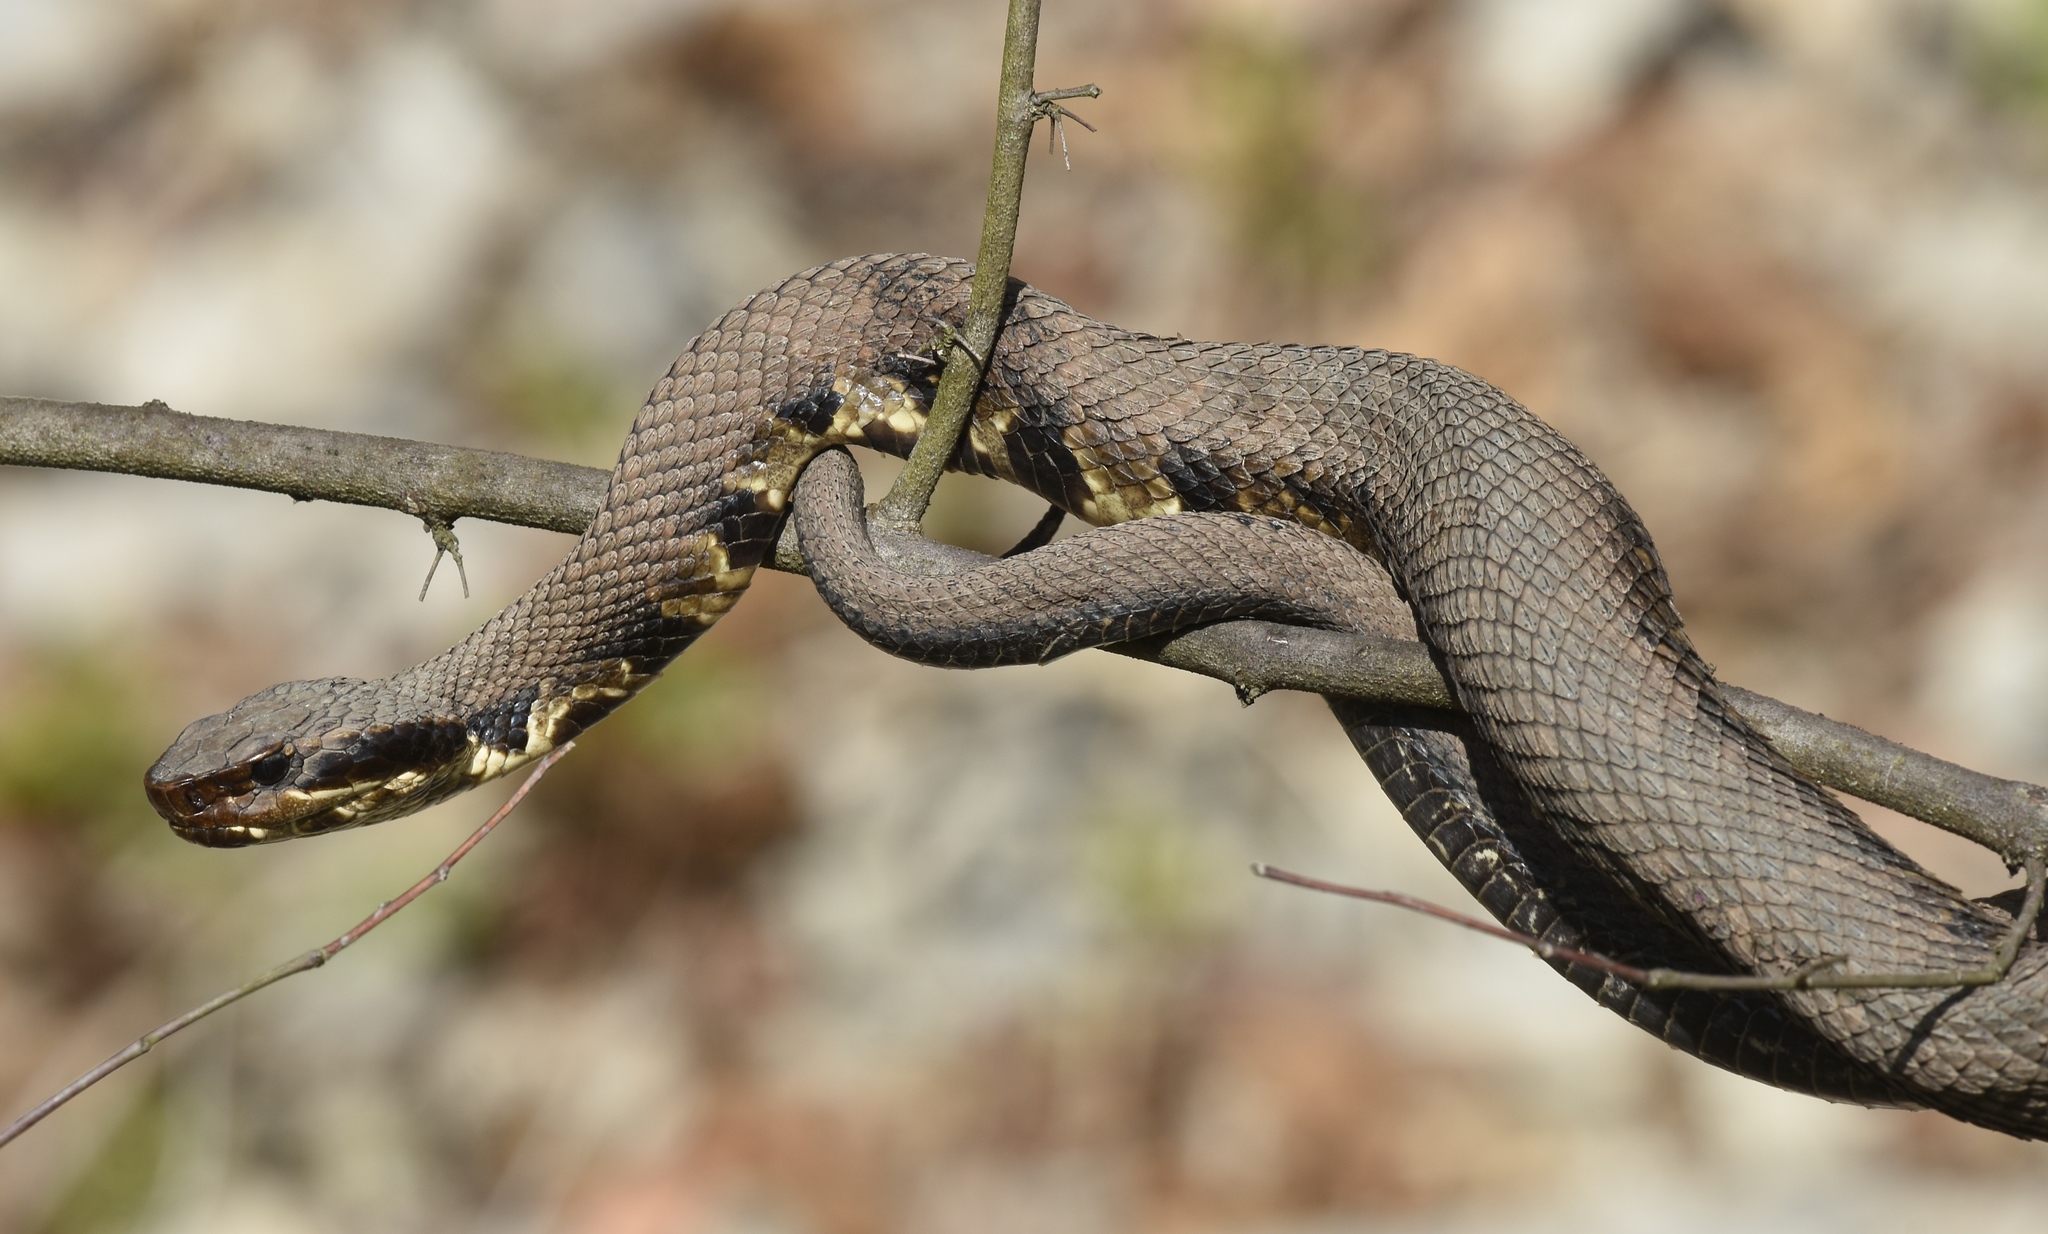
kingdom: Animalia
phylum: Chordata
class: Squamata
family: Viperidae
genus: Agkistrodon
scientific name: Agkistrodon piscivorus
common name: Cottonmouth
